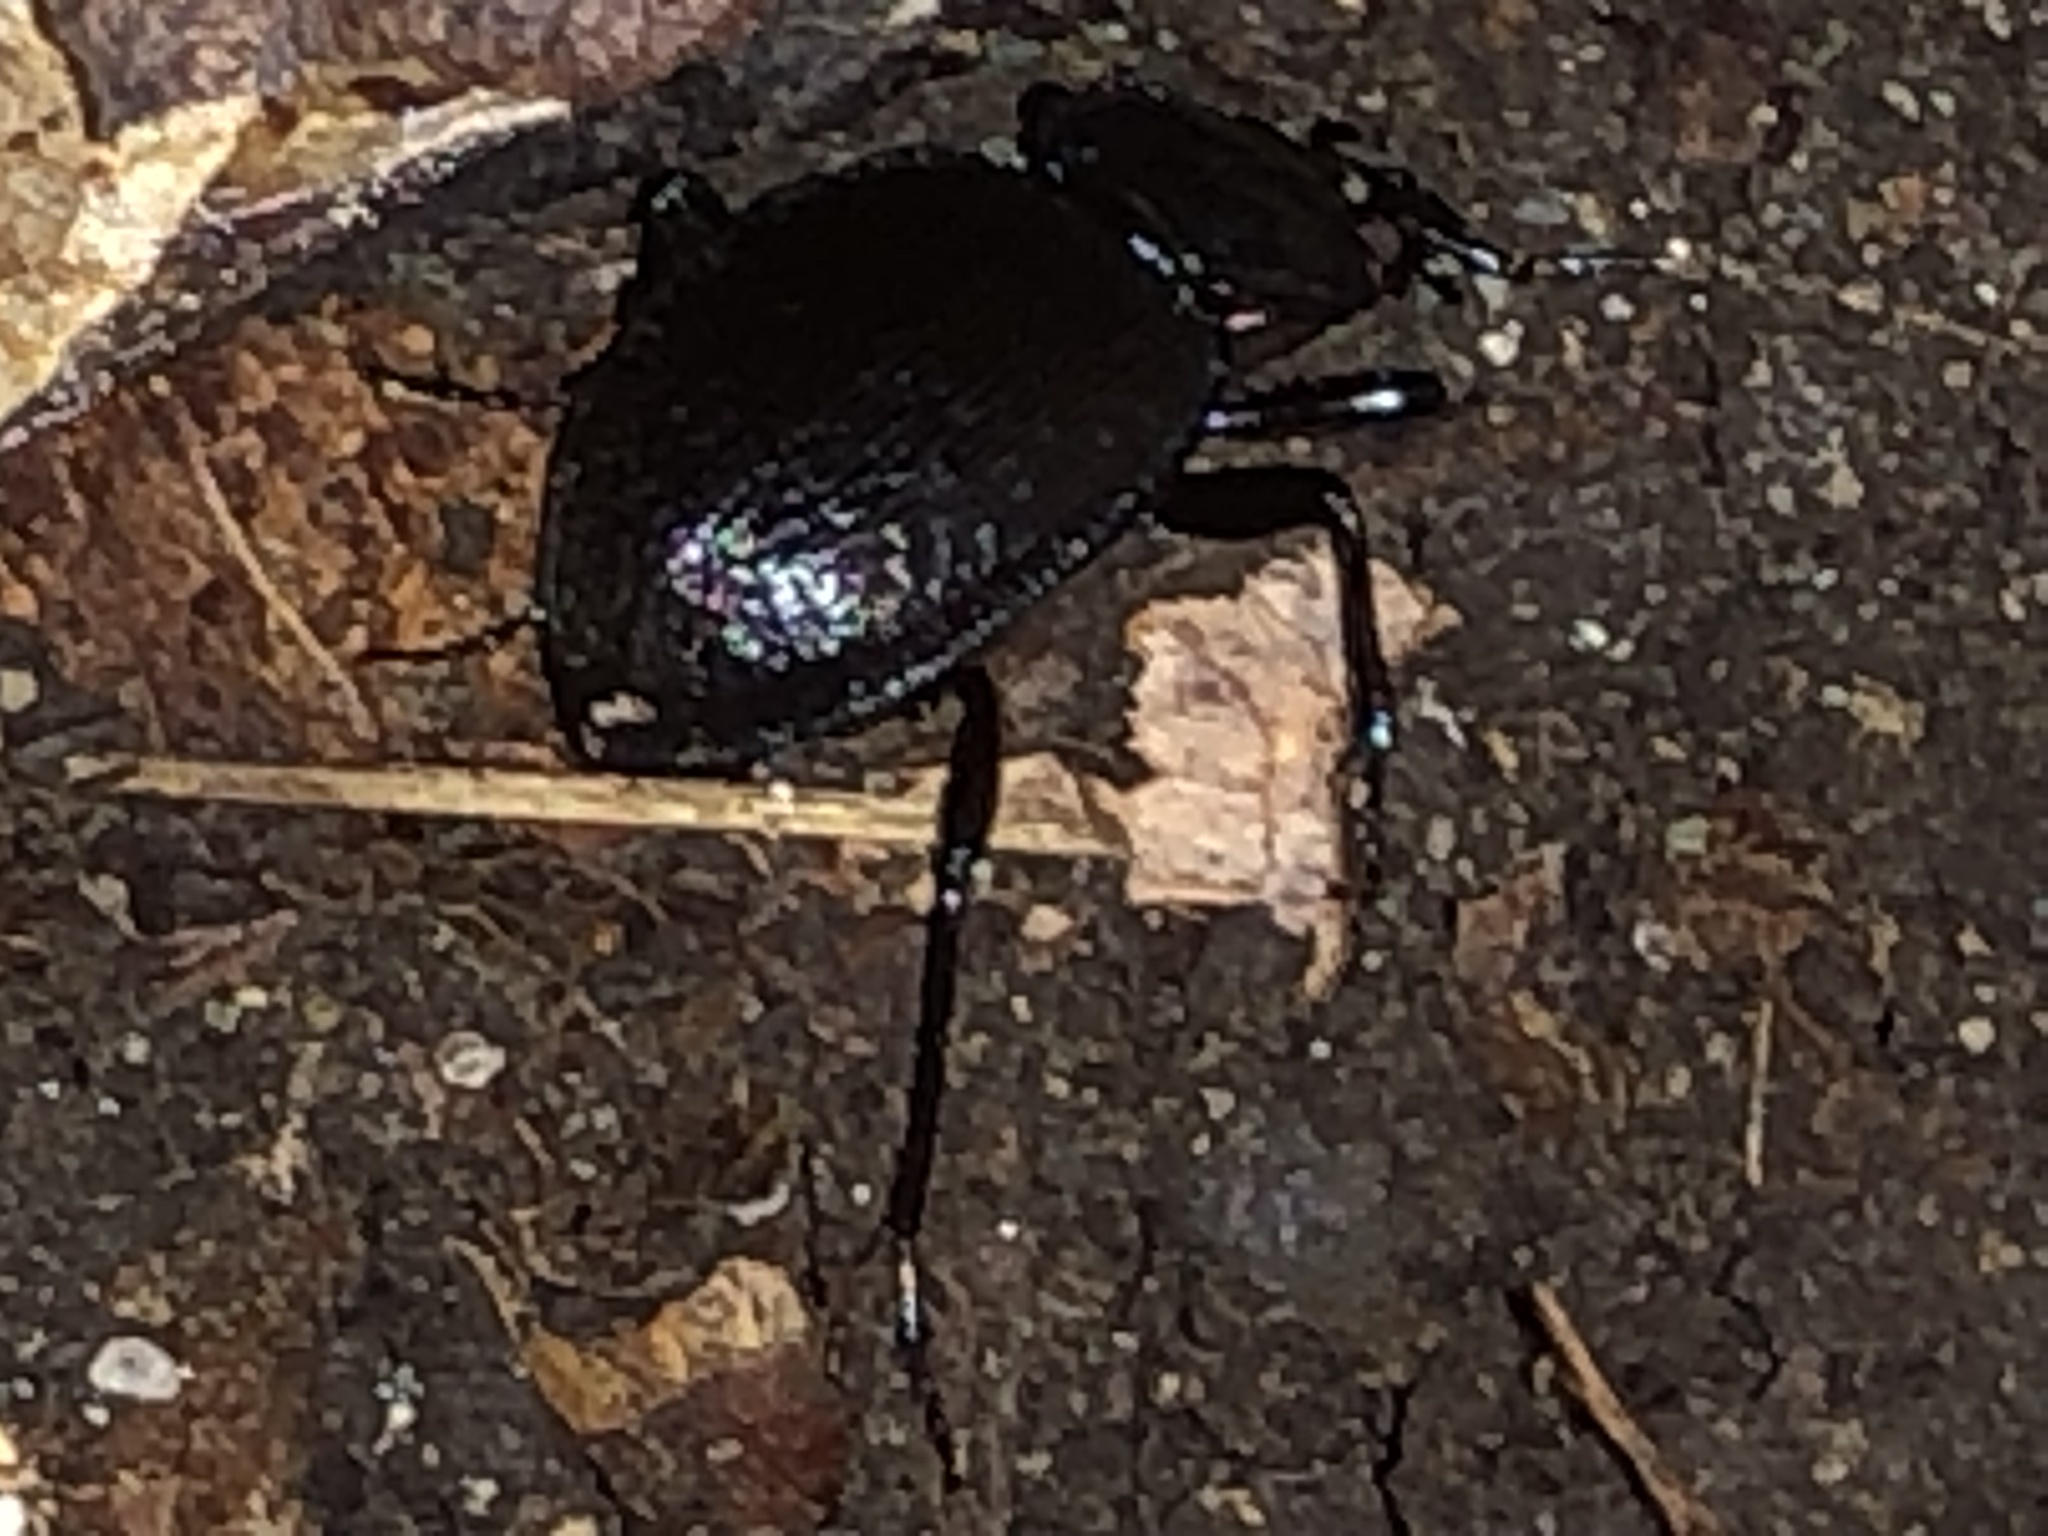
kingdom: Animalia
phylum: Arthropoda
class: Insecta
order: Coleoptera
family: Carabidae
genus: Sphaeroderus
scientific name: Sphaeroderus stenostomus
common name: Small snail-eating ground beetle
